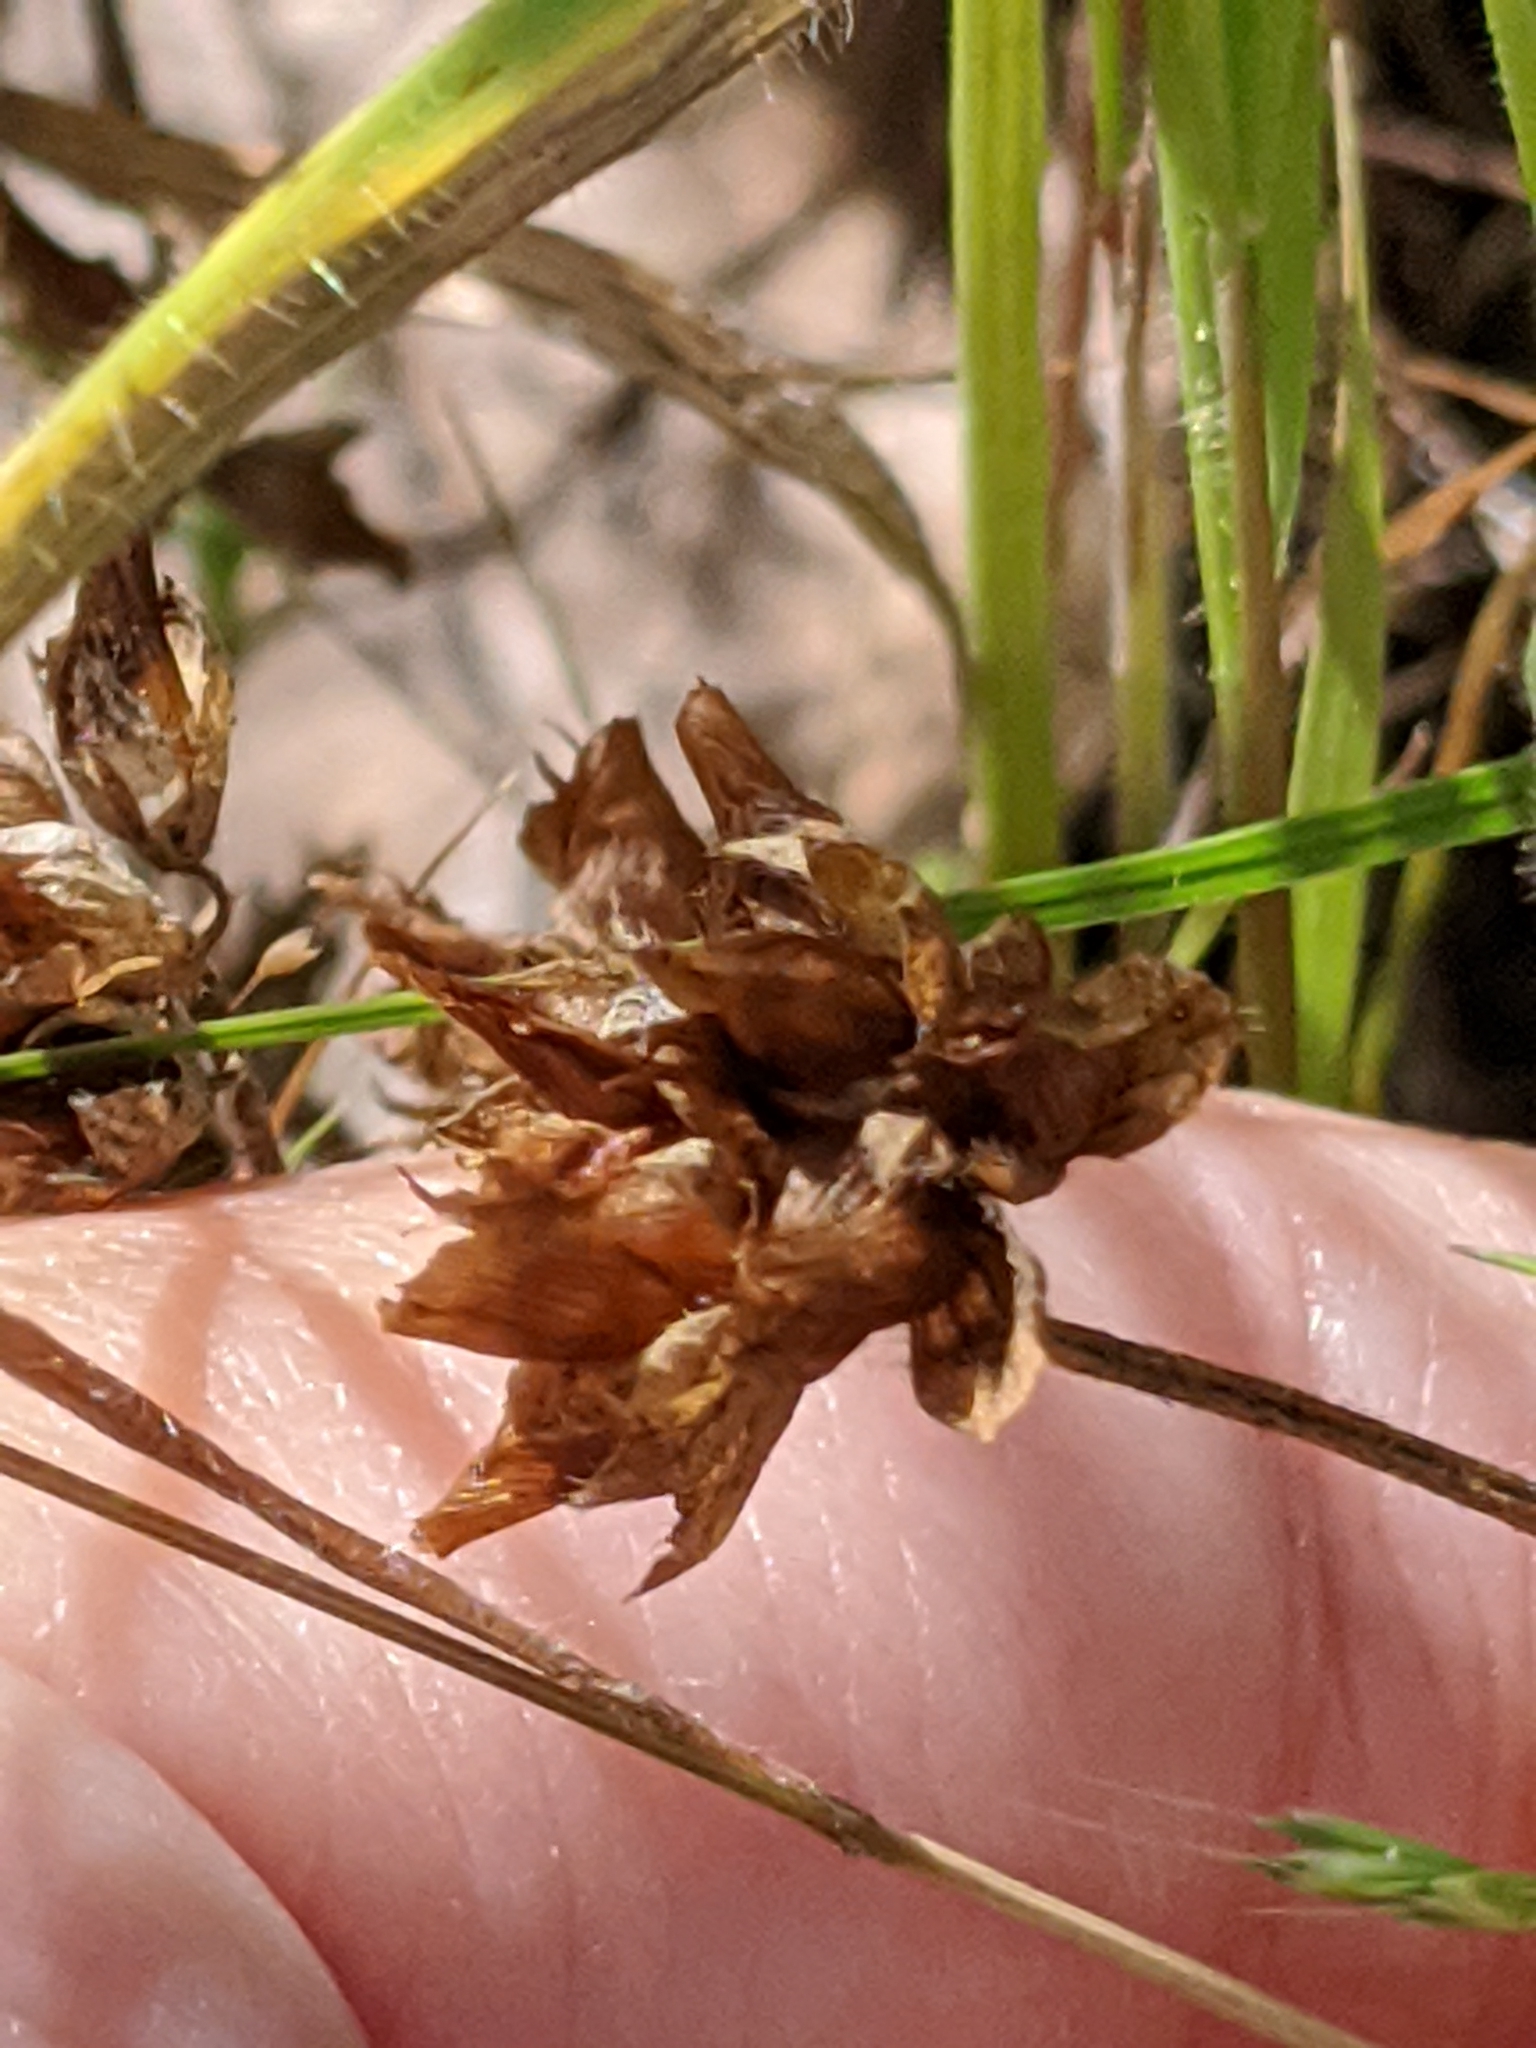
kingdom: Plantae
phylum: Tracheophyta
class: Magnoliopsida
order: Fabales
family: Fabaceae
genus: Trifolium
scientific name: Trifolium bejariense
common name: Bejar clover
